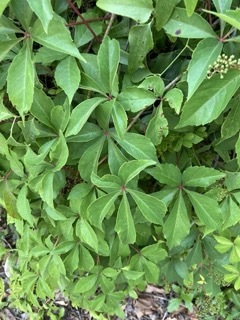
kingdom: Plantae
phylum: Tracheophyta
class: Magnoliopsida
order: Vitales
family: Vitaceae
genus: Parthenocissus
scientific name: Parthenocissus quinquefolia
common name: Virginia-creeper
